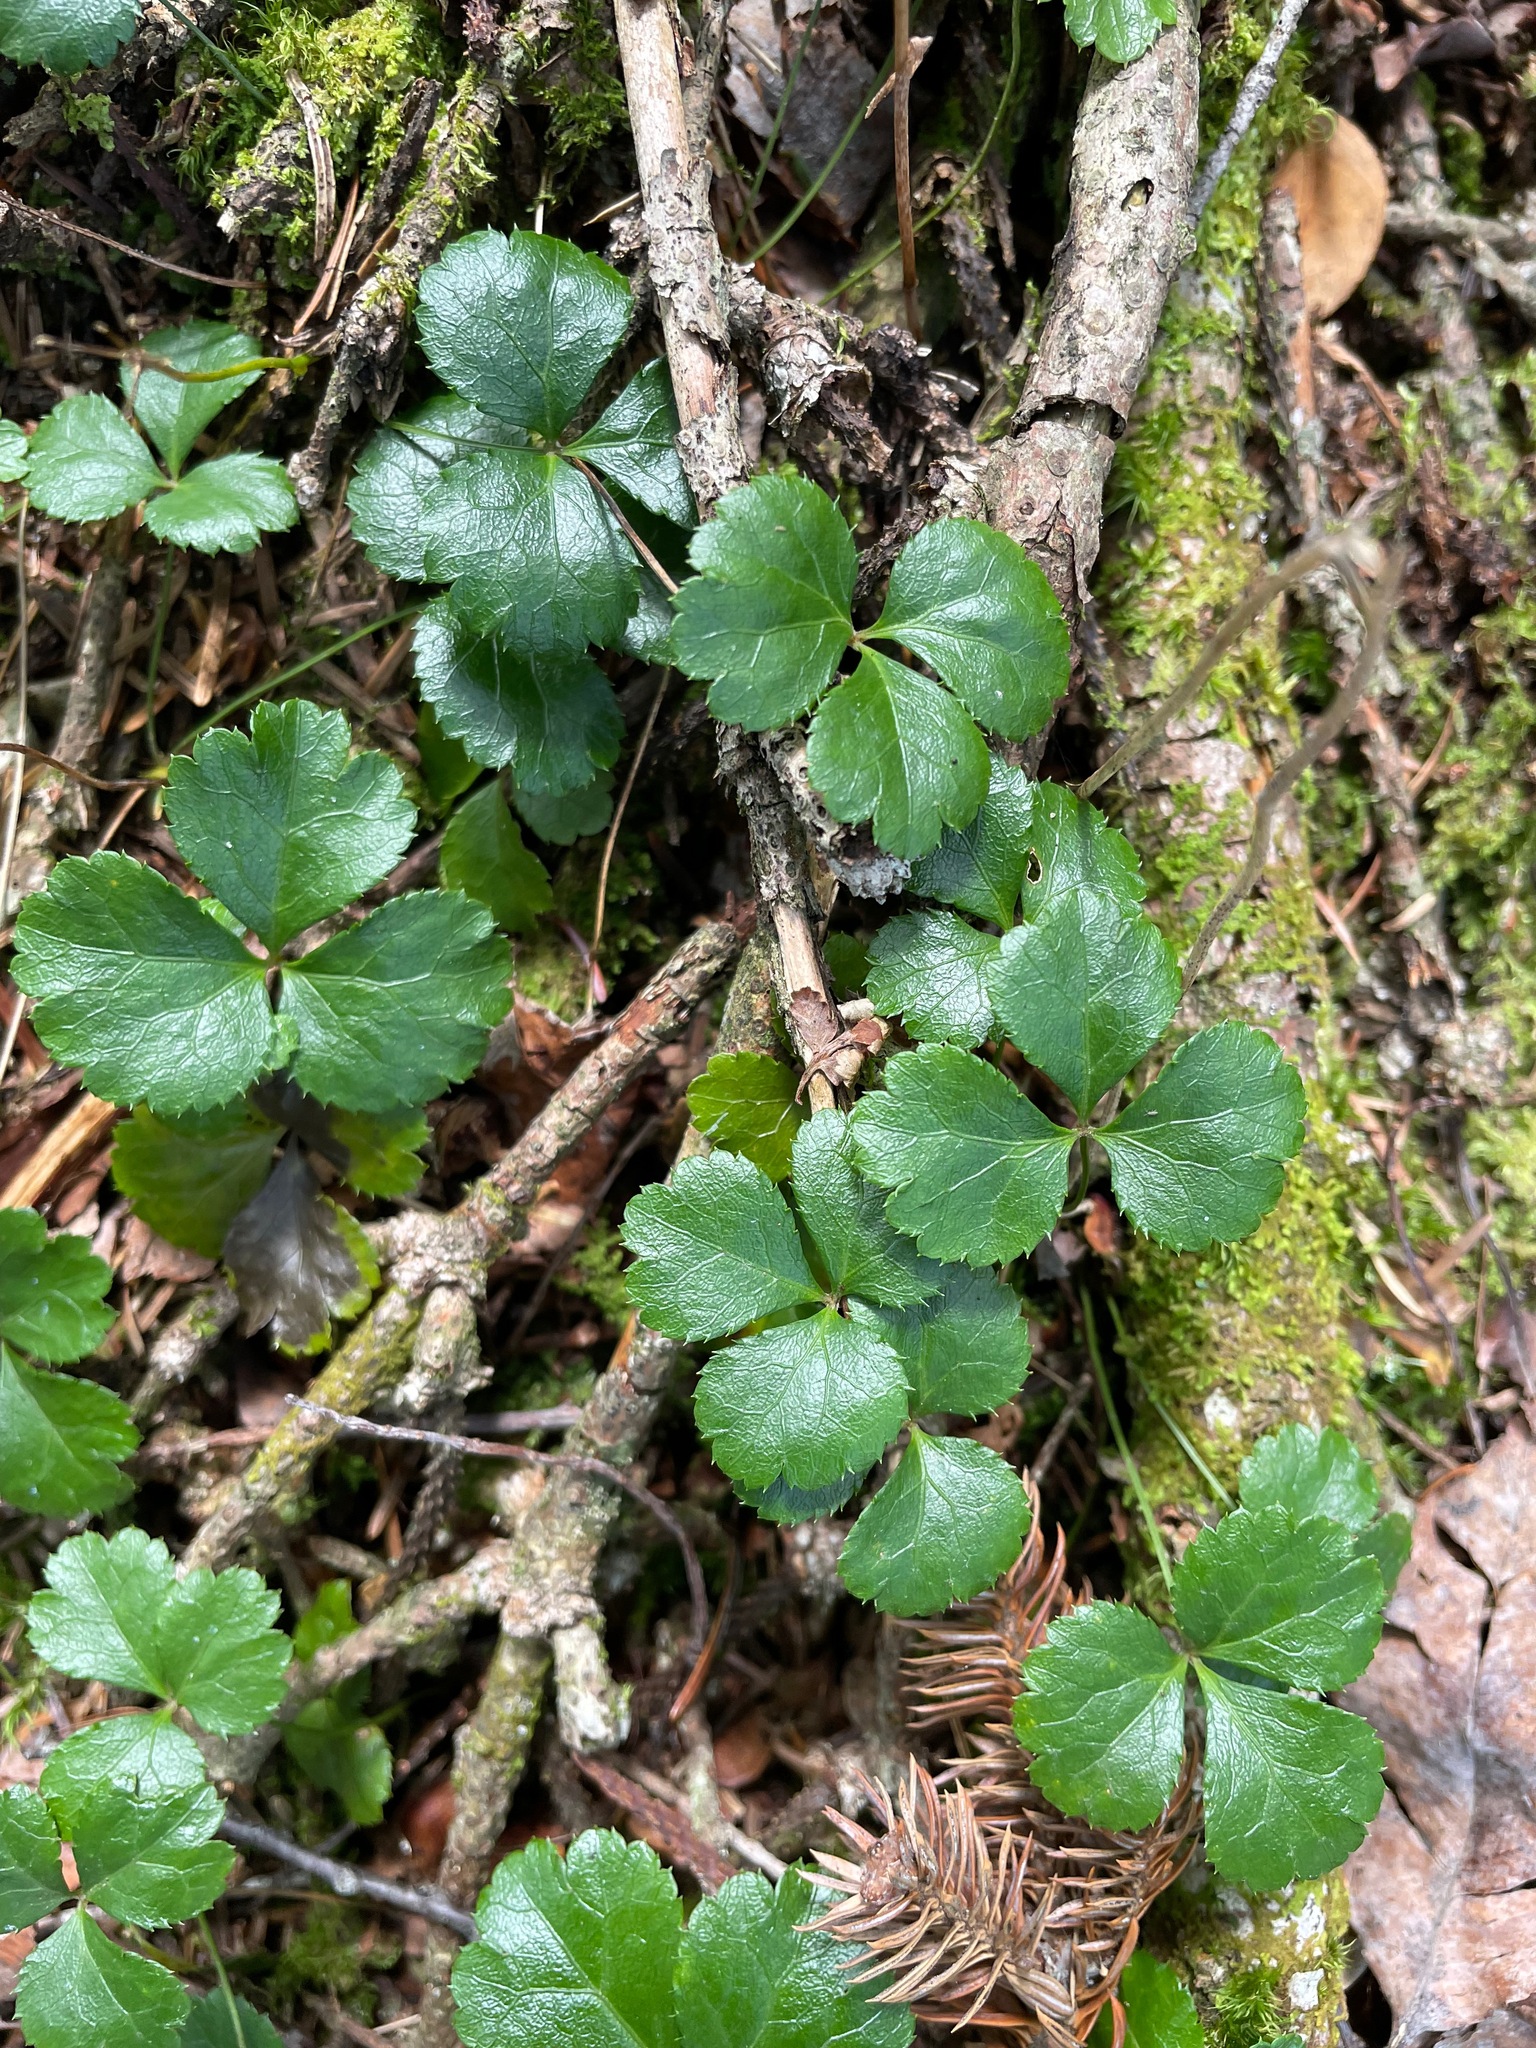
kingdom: Plantae
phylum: Tracheophyta
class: Magnoliopsida
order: Ranunculales
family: Ranunculaceae
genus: Coptis
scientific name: Coptis trifolia
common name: Canker-root
